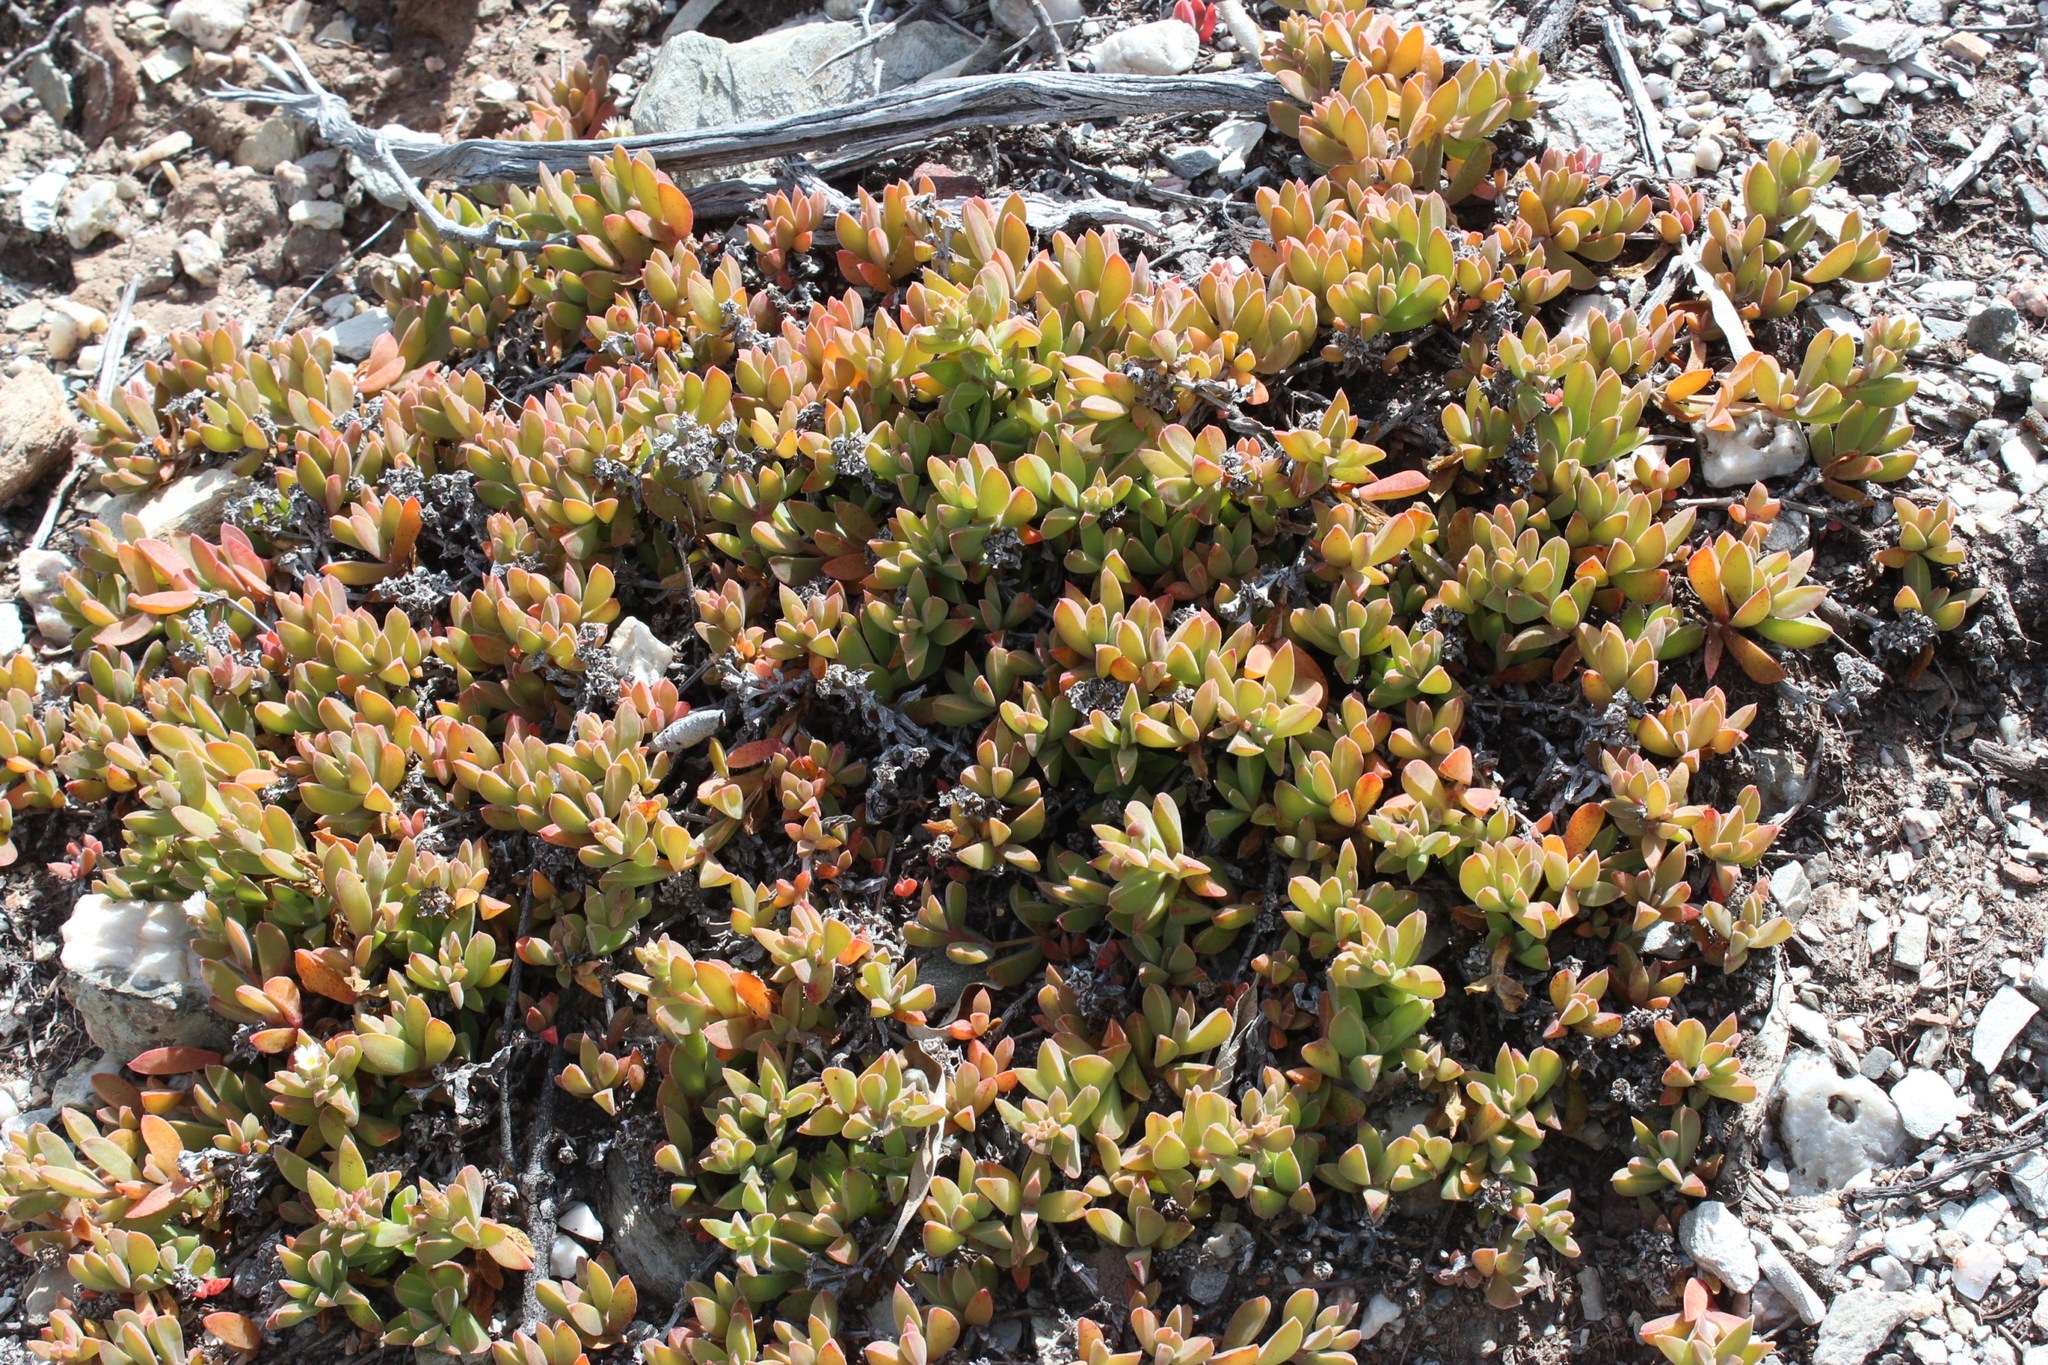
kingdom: Plantae
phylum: Tracheophyta
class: Magnoliopsida
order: Caryophyllales
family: Aizoaceae
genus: Delosperma
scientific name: Delosperma patersoniae
